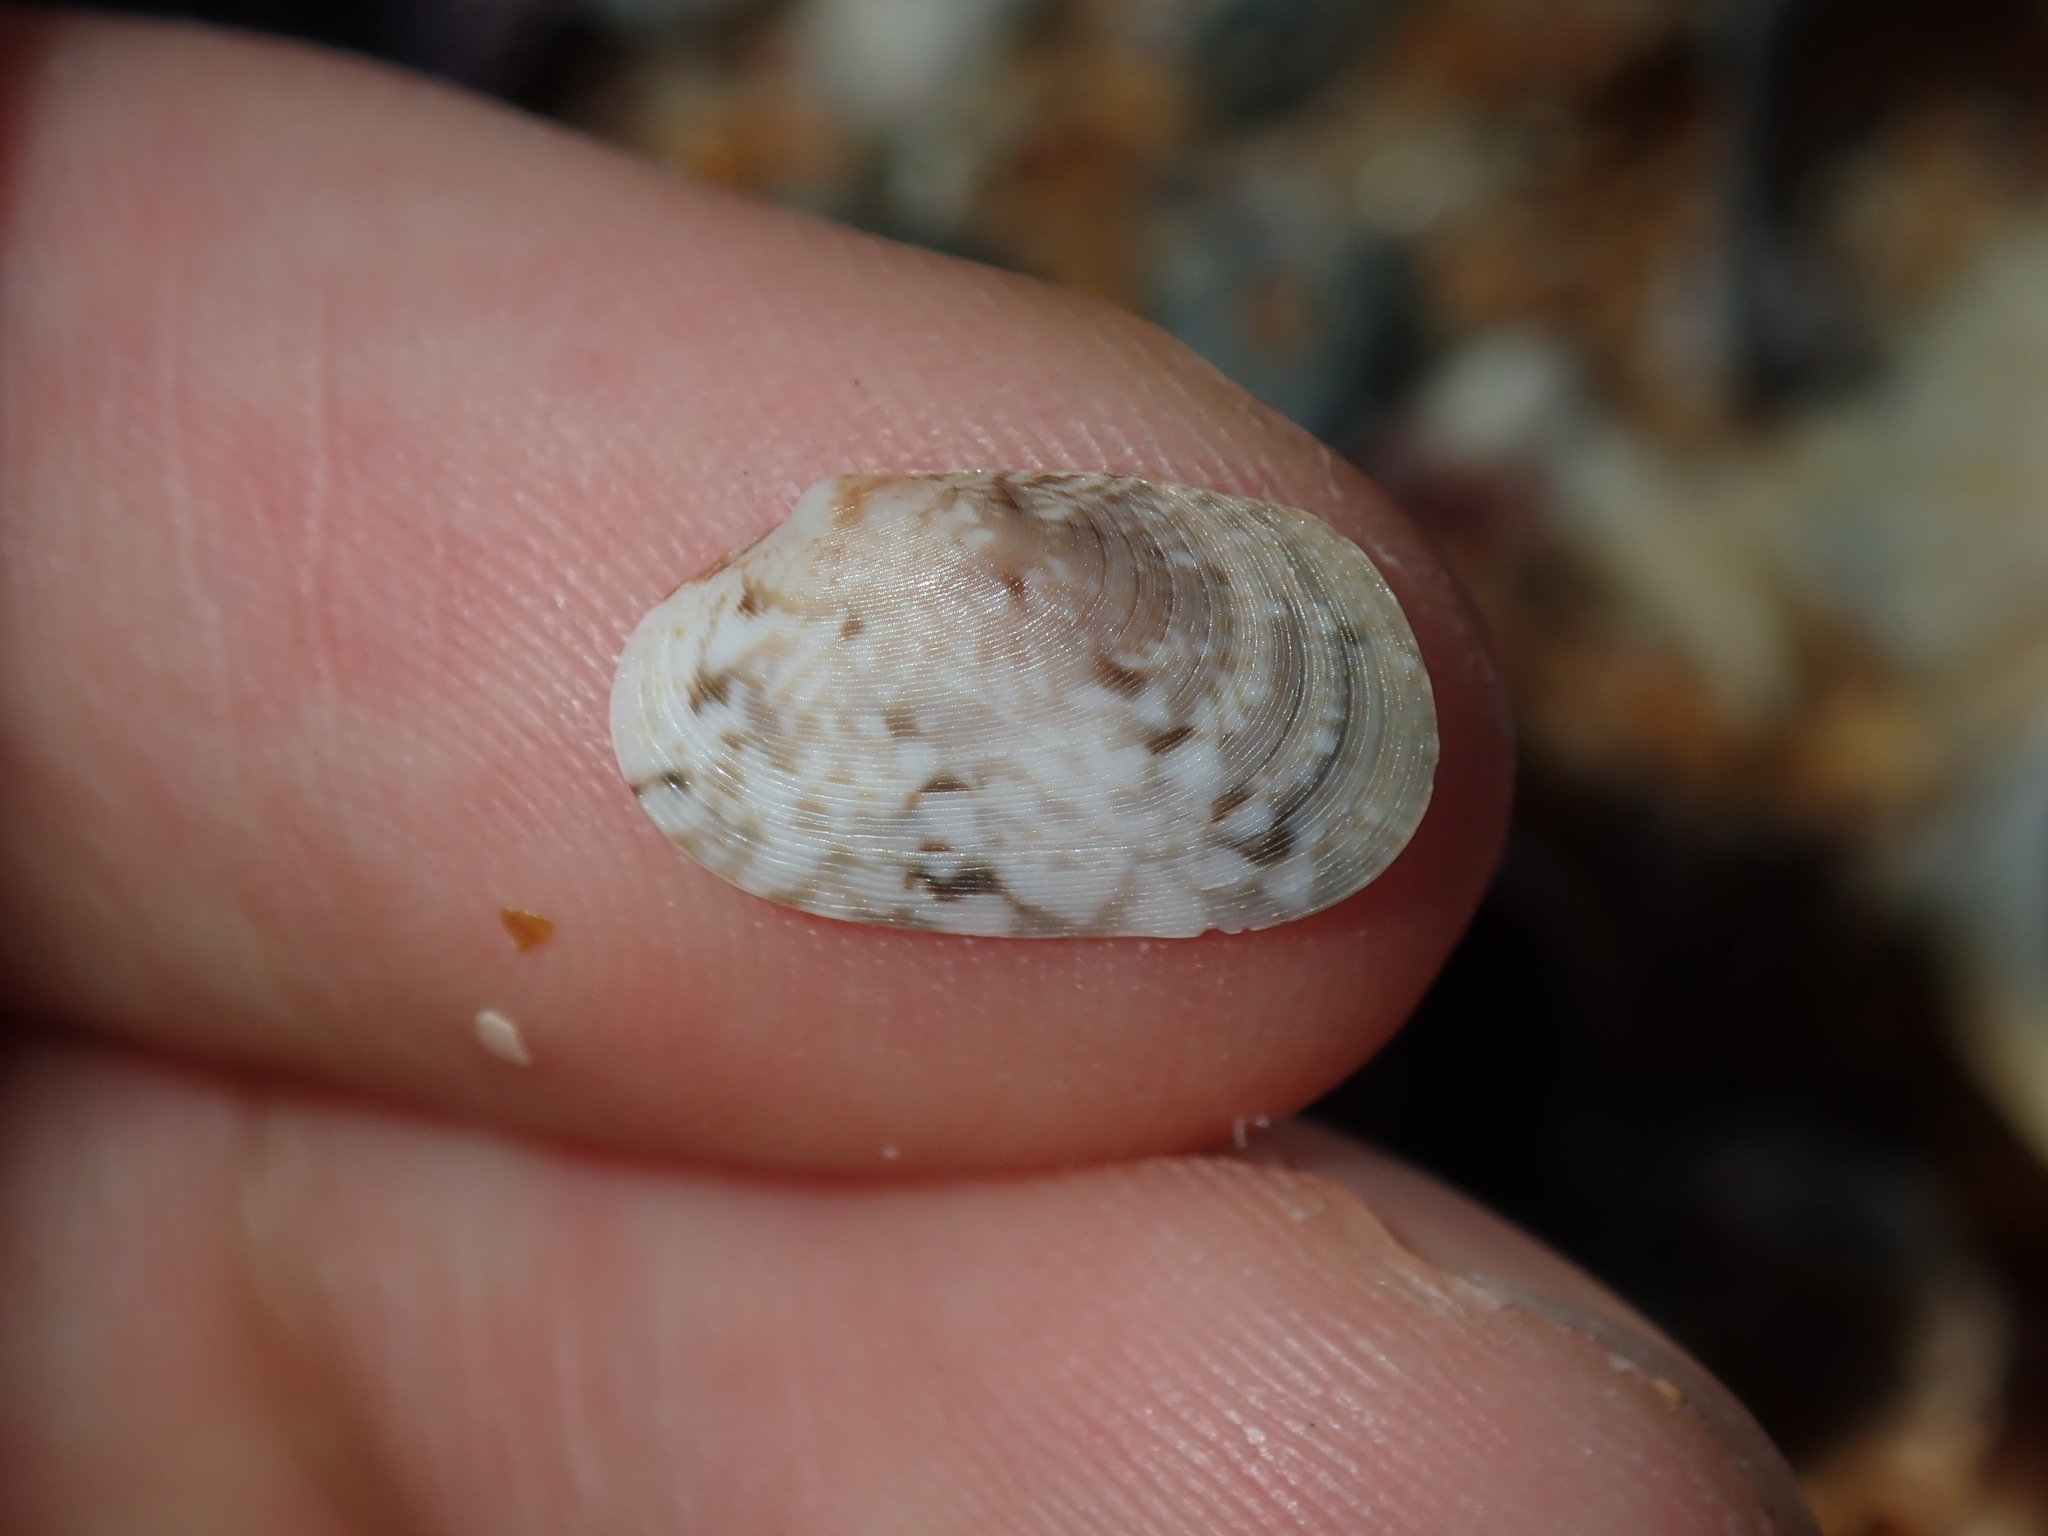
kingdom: Animalia
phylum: Mollusca
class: Bivalvia
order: Venerida
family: Veneridae
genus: Venerupis
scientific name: Venerupis anomala
